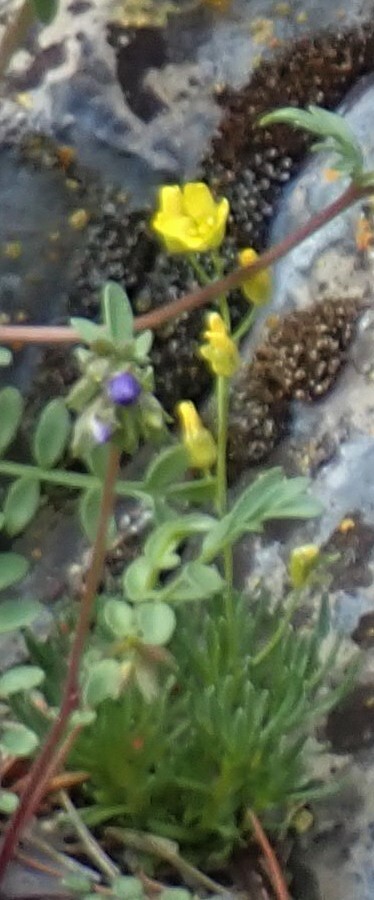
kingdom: Plantae
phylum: Tracheophyta
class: Magnoliopsida
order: Brassicales
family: Brassicaceae
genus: Draba
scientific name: Draba oligosperma
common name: Few-seed draba
